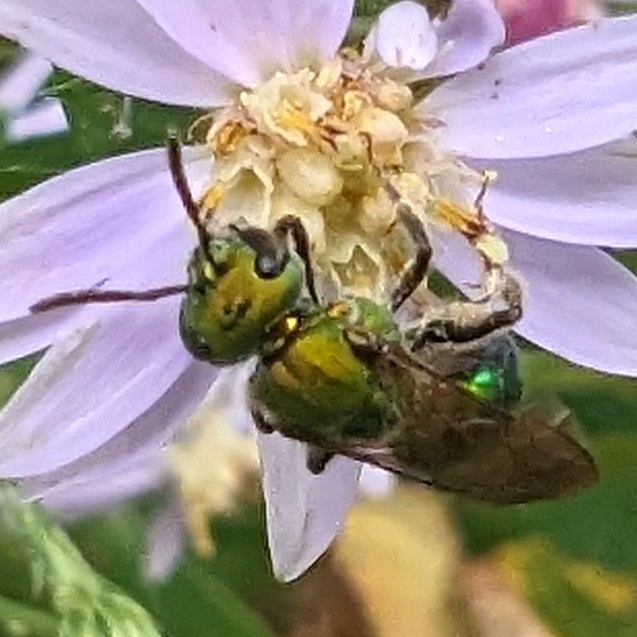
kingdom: Animalia
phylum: Arthropoda
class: Insecta
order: Hymenoptera
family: Halictidae
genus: Augochlora
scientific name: Augochlora pura
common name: Pure green sweat bee
